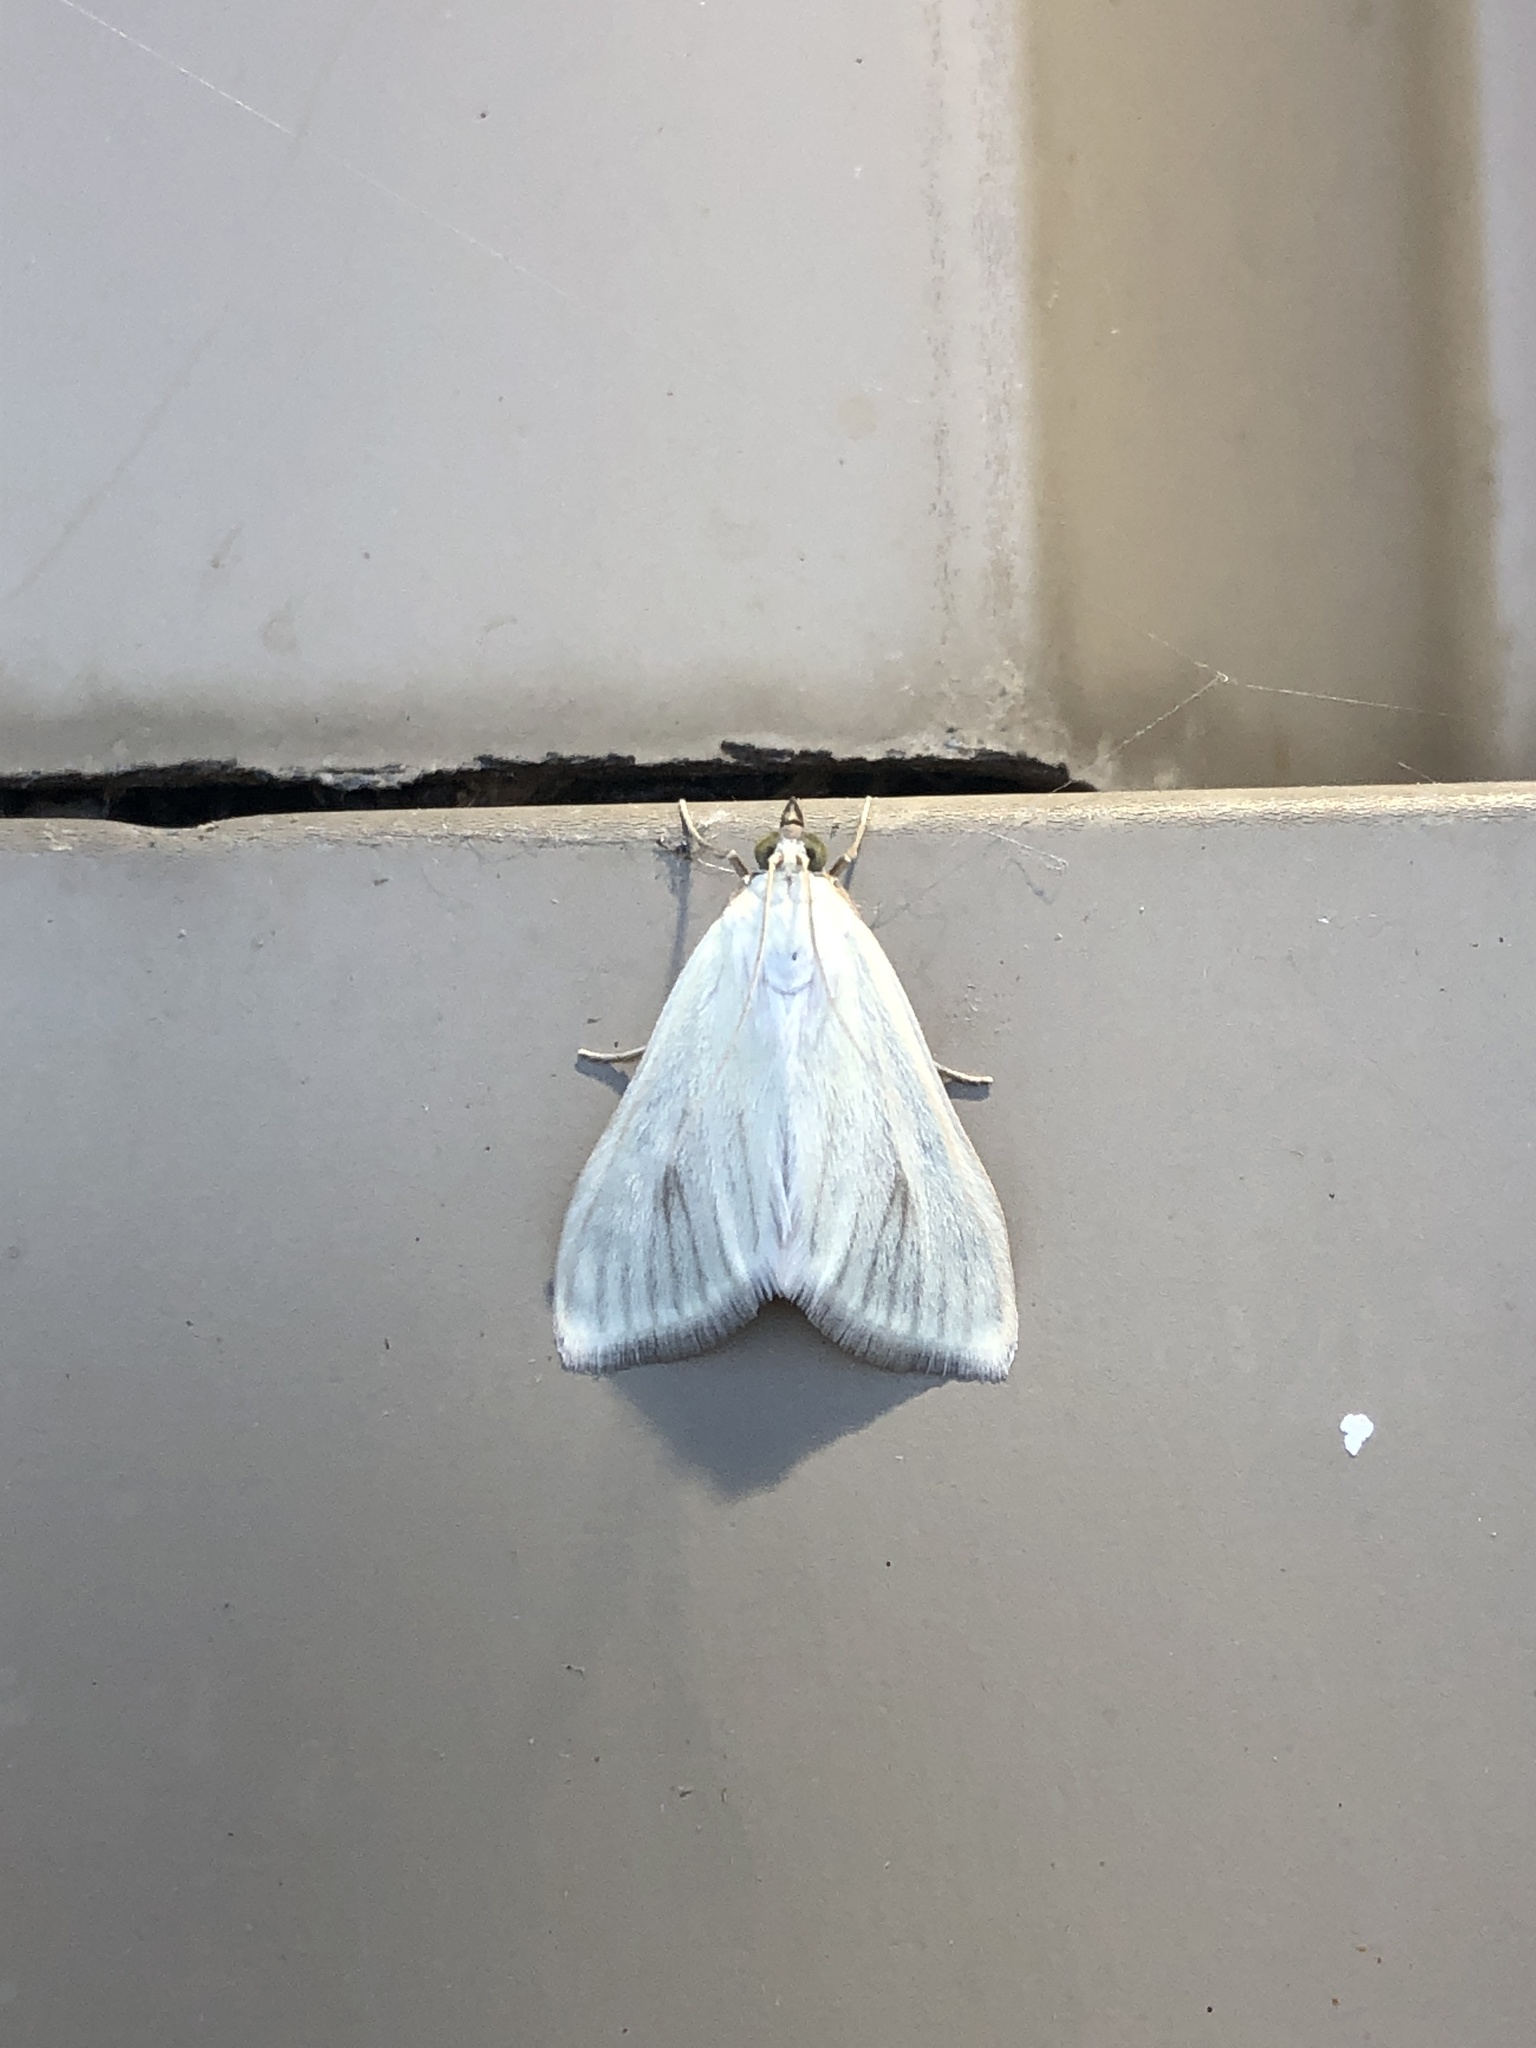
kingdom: Animalia
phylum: Arthropoda
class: Insecta
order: Lepidoptera
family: Crambidae
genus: Sitochroa
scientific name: Sitochroa palealis
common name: Greenish-yellow sitochroa moth
